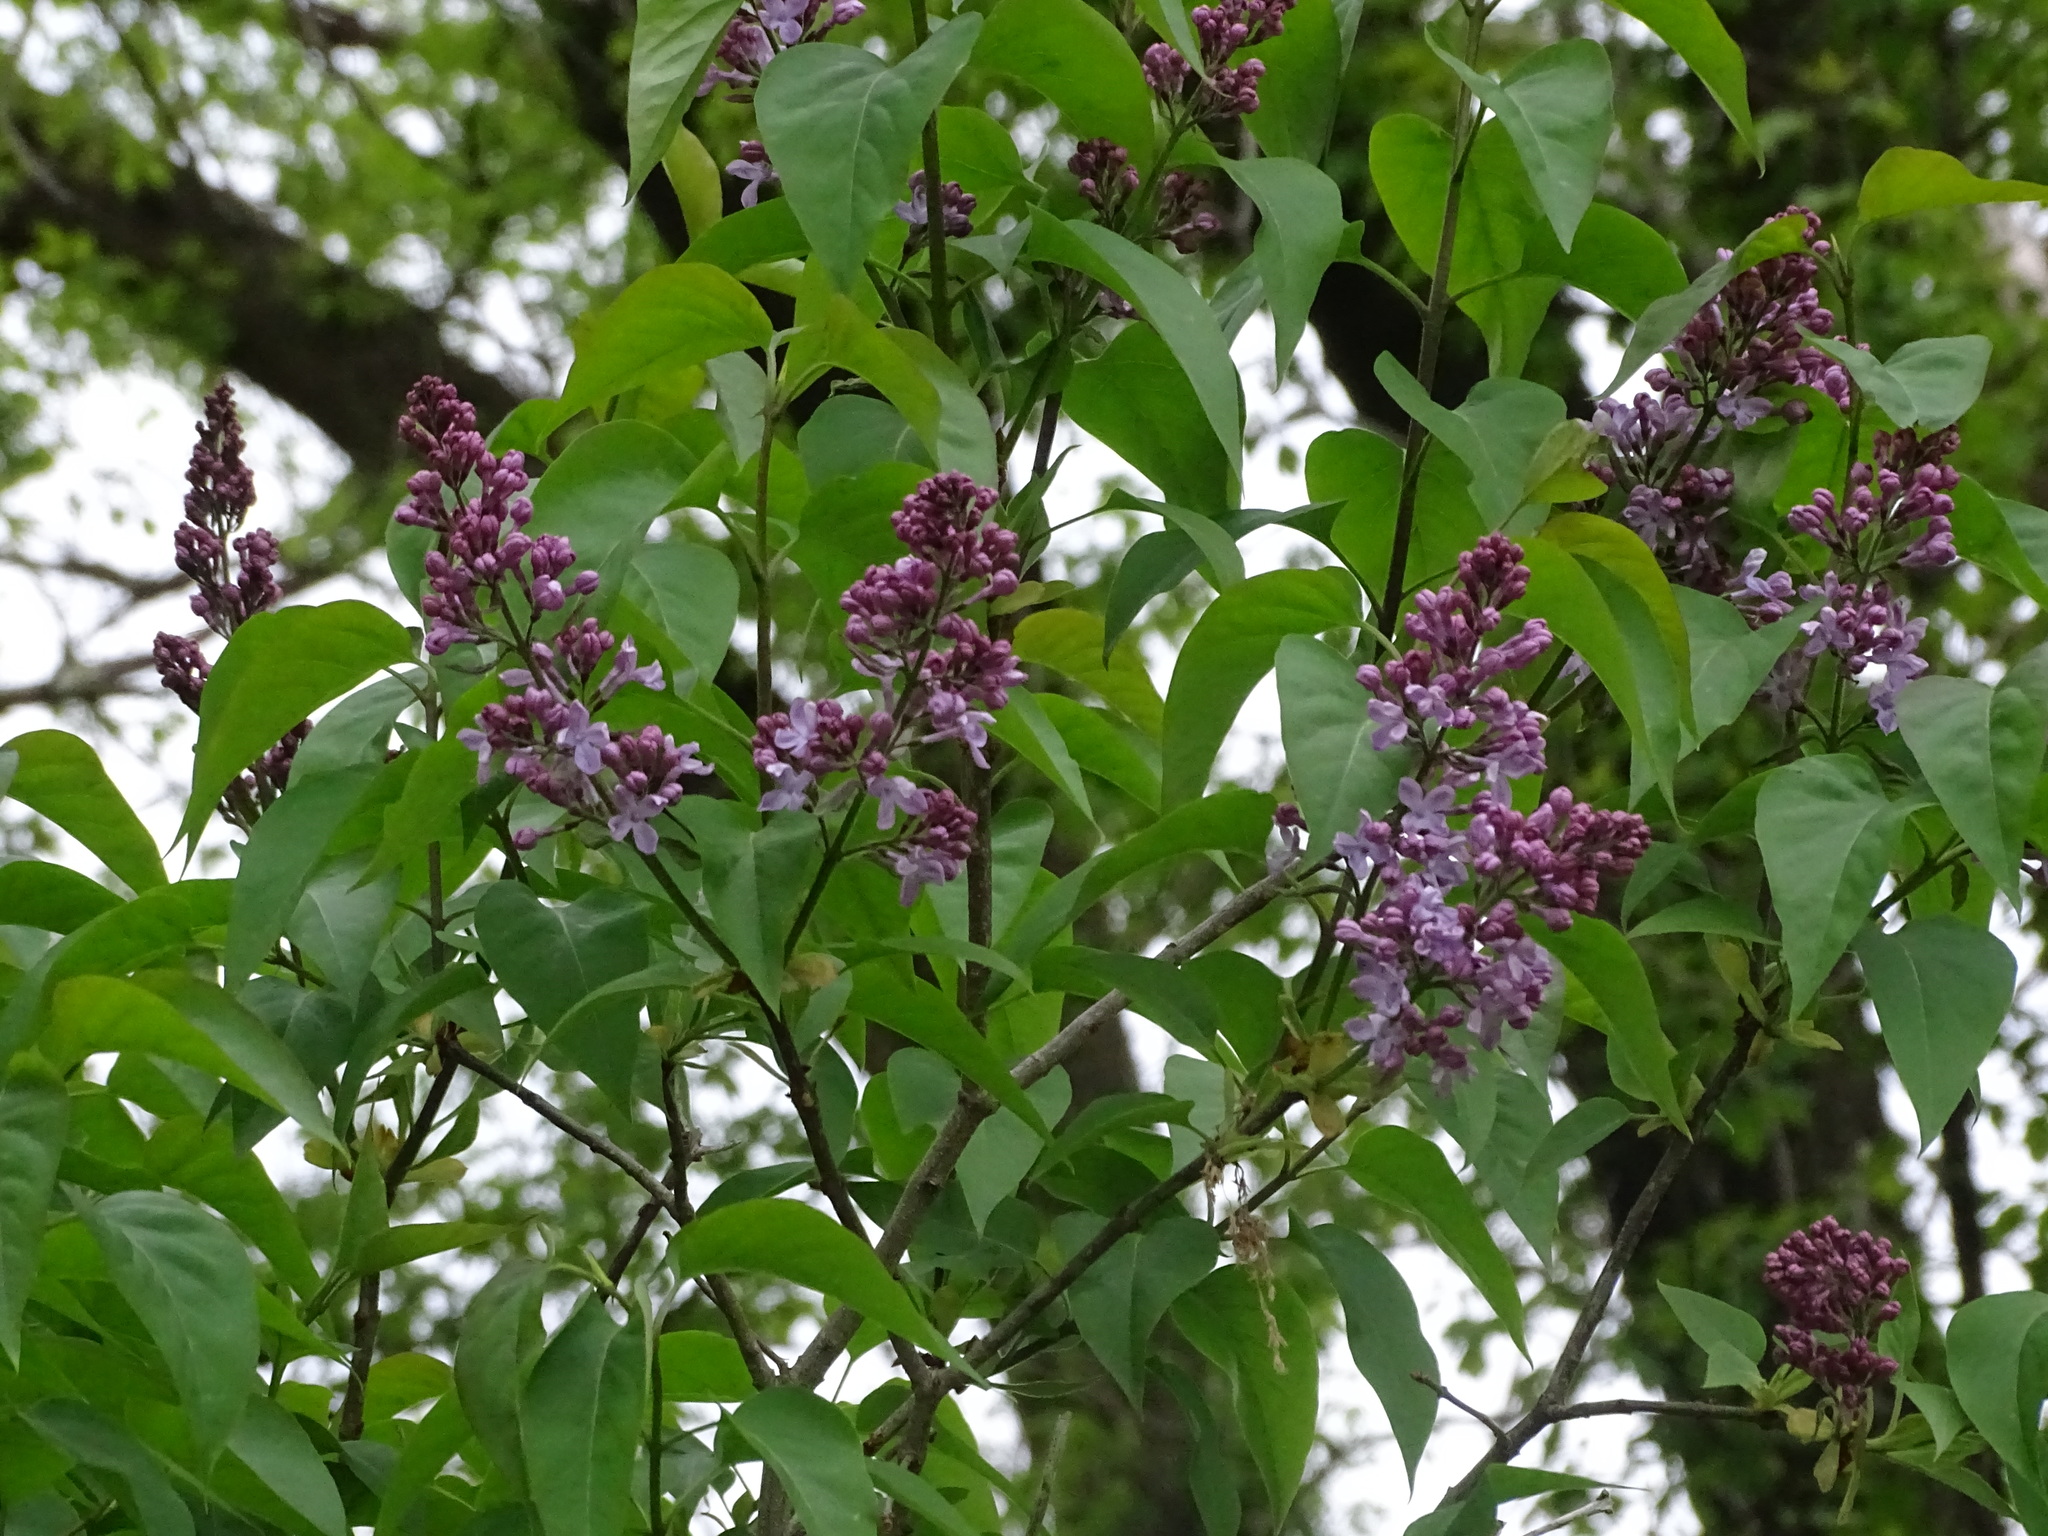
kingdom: Plantae
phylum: Tracheophyta
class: Magnoliopsida
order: Lamiales
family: Oleaceae
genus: Syringa
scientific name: Syringa vulgaris
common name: Common lilac
